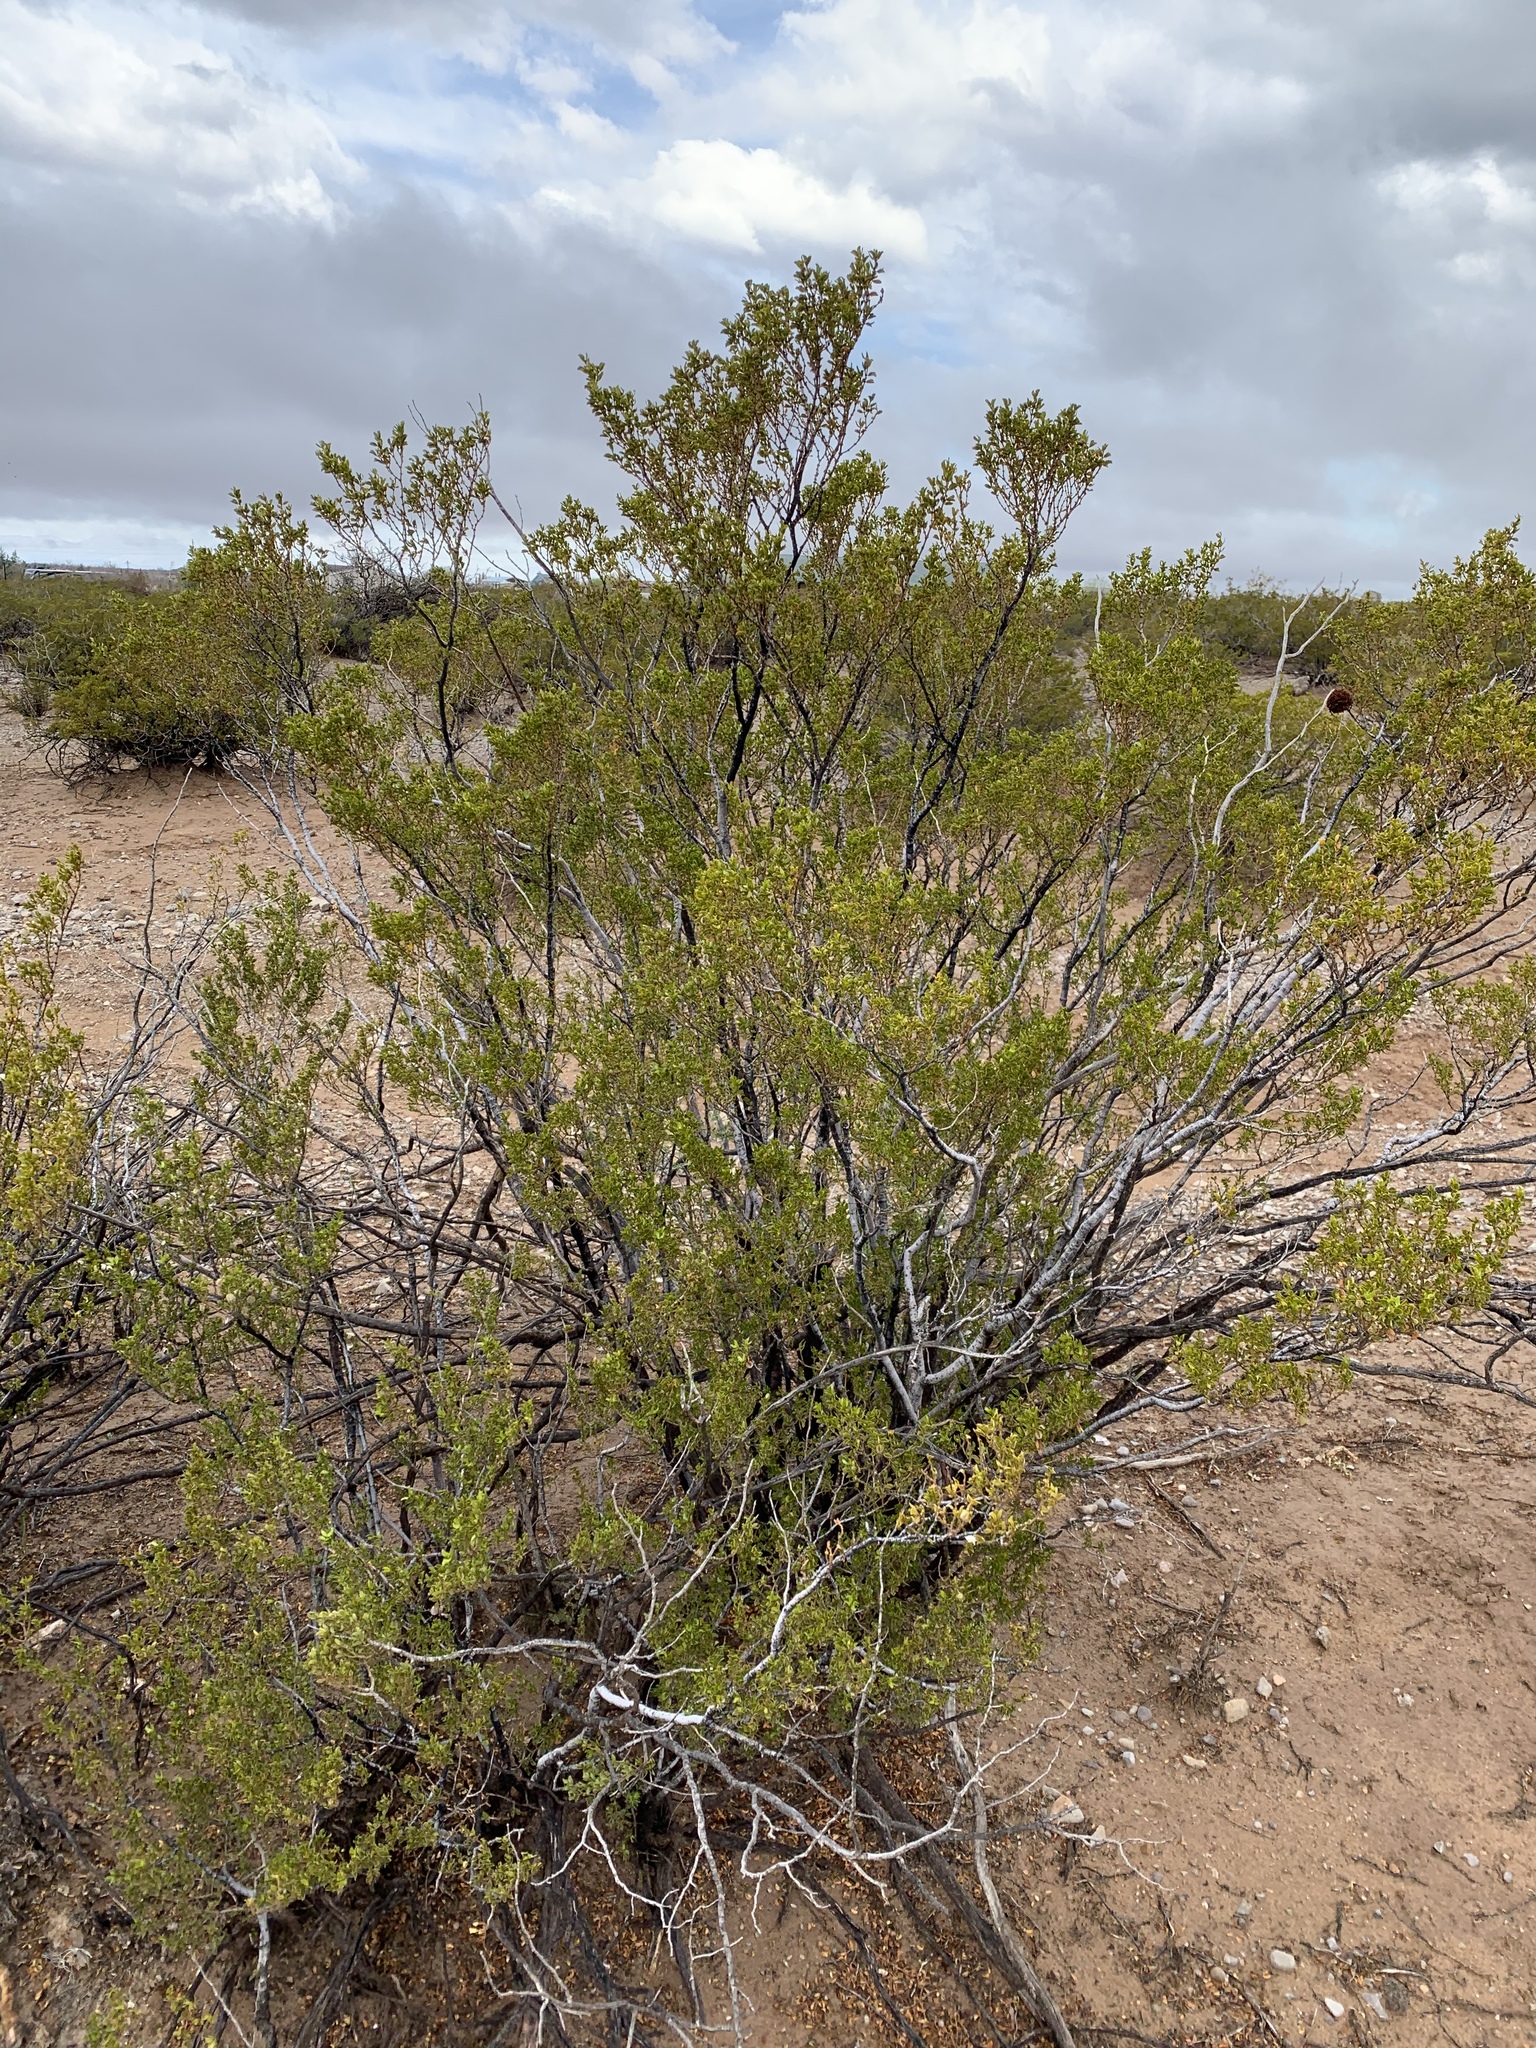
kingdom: Plantae
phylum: Tracheophyta
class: Magnoliopsida
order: Zygophyllales
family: Zygophyllaceae
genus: Larrea
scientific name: Larrea tridentata
